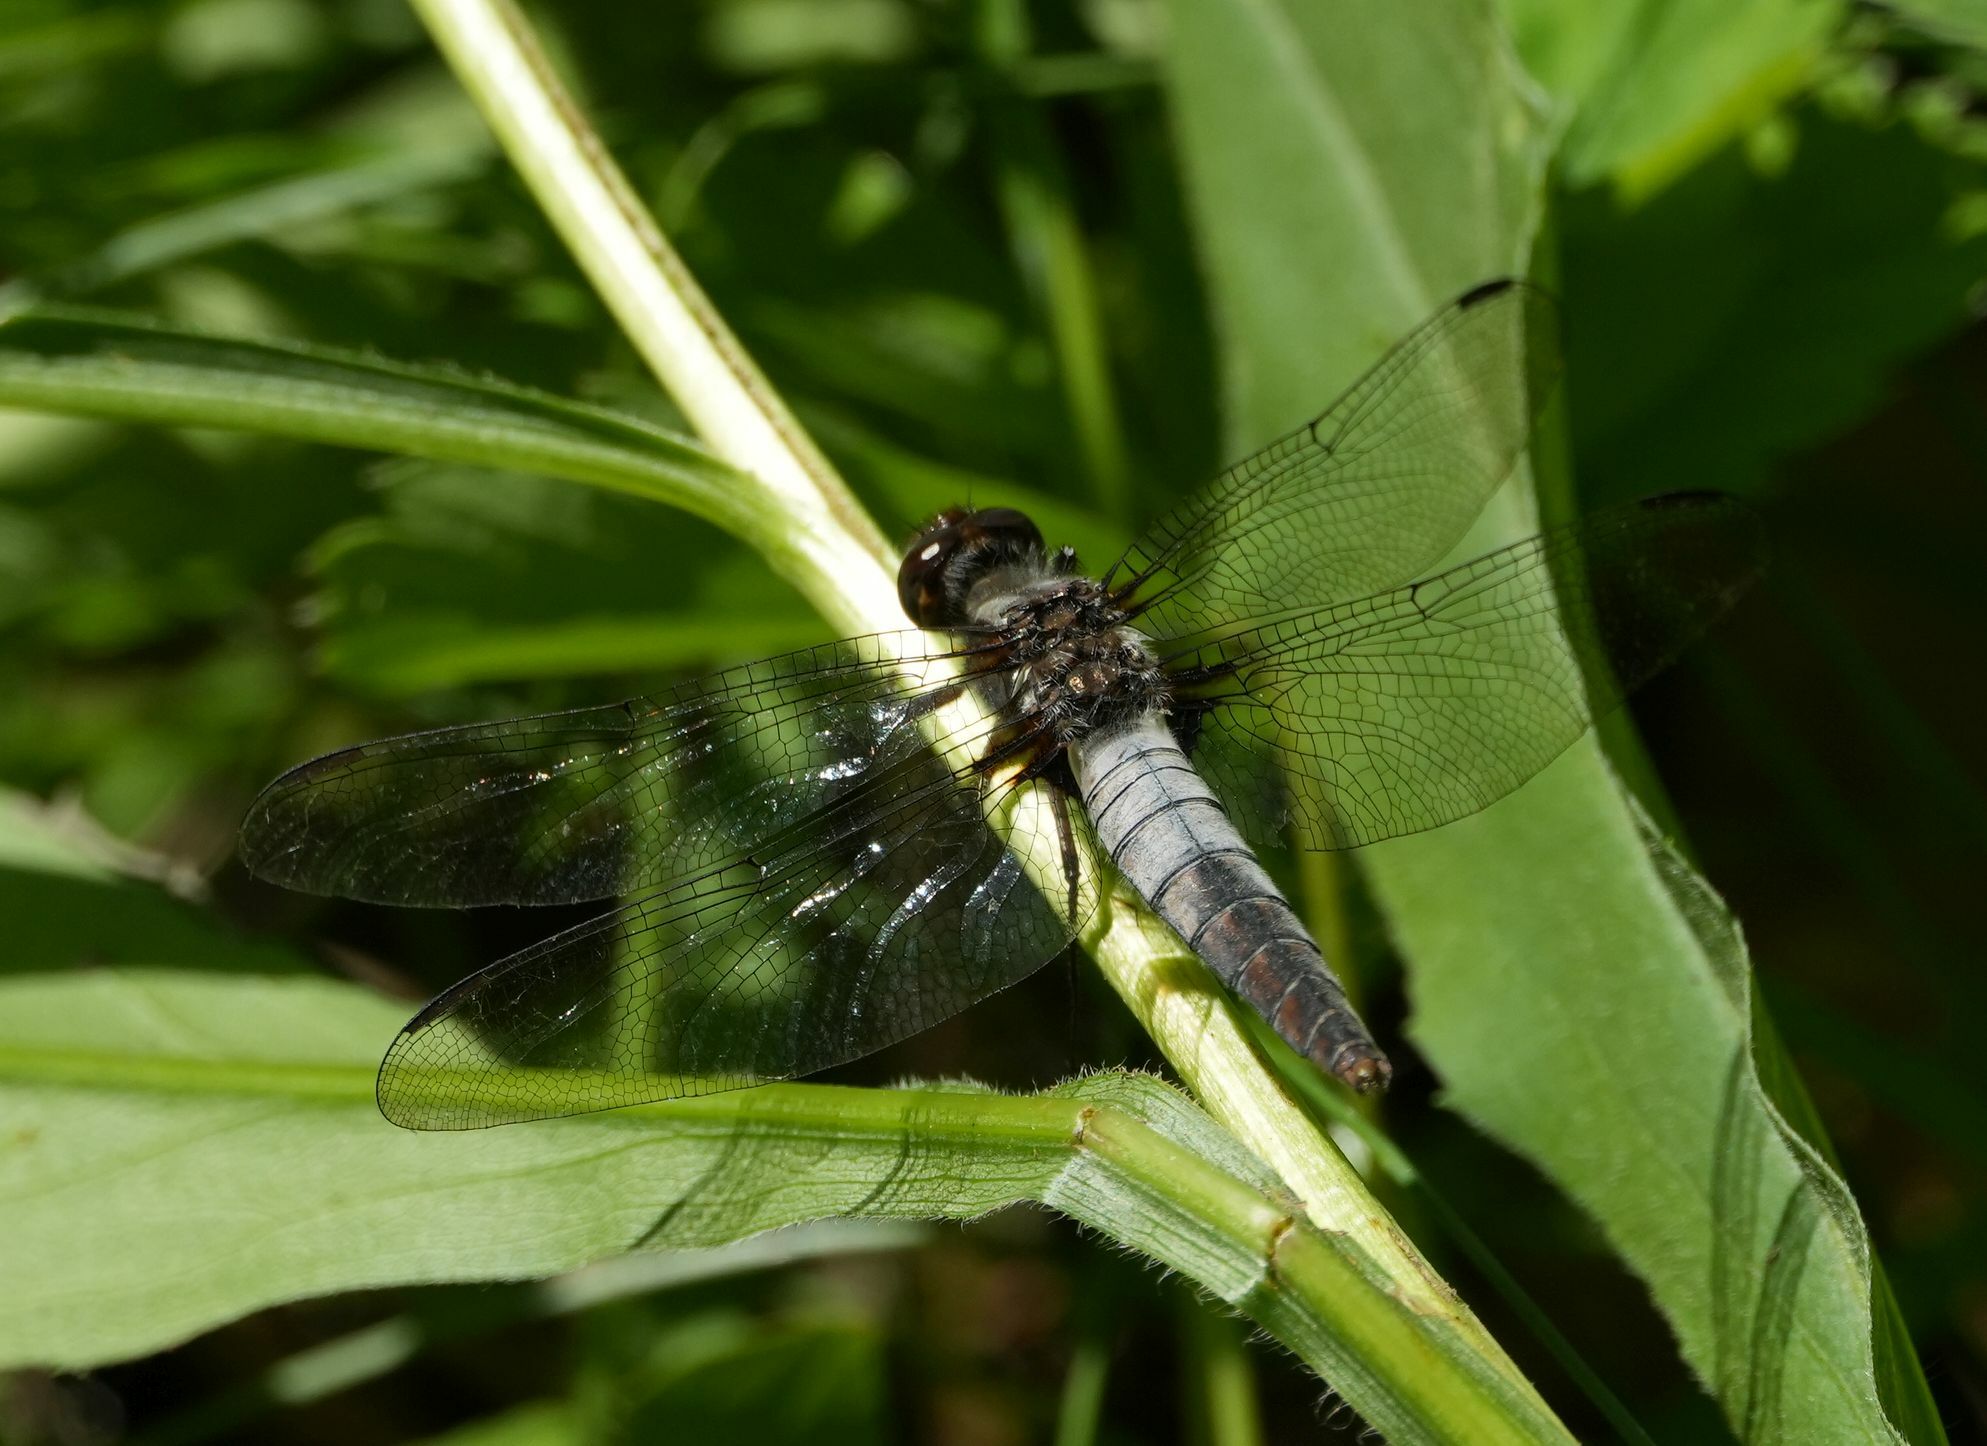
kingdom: Animalia
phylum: Arthropoda
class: Insecta
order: Odonata
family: Libellulidae
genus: Ladona
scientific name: Ladona julia
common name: Chalk-fronted corporal
